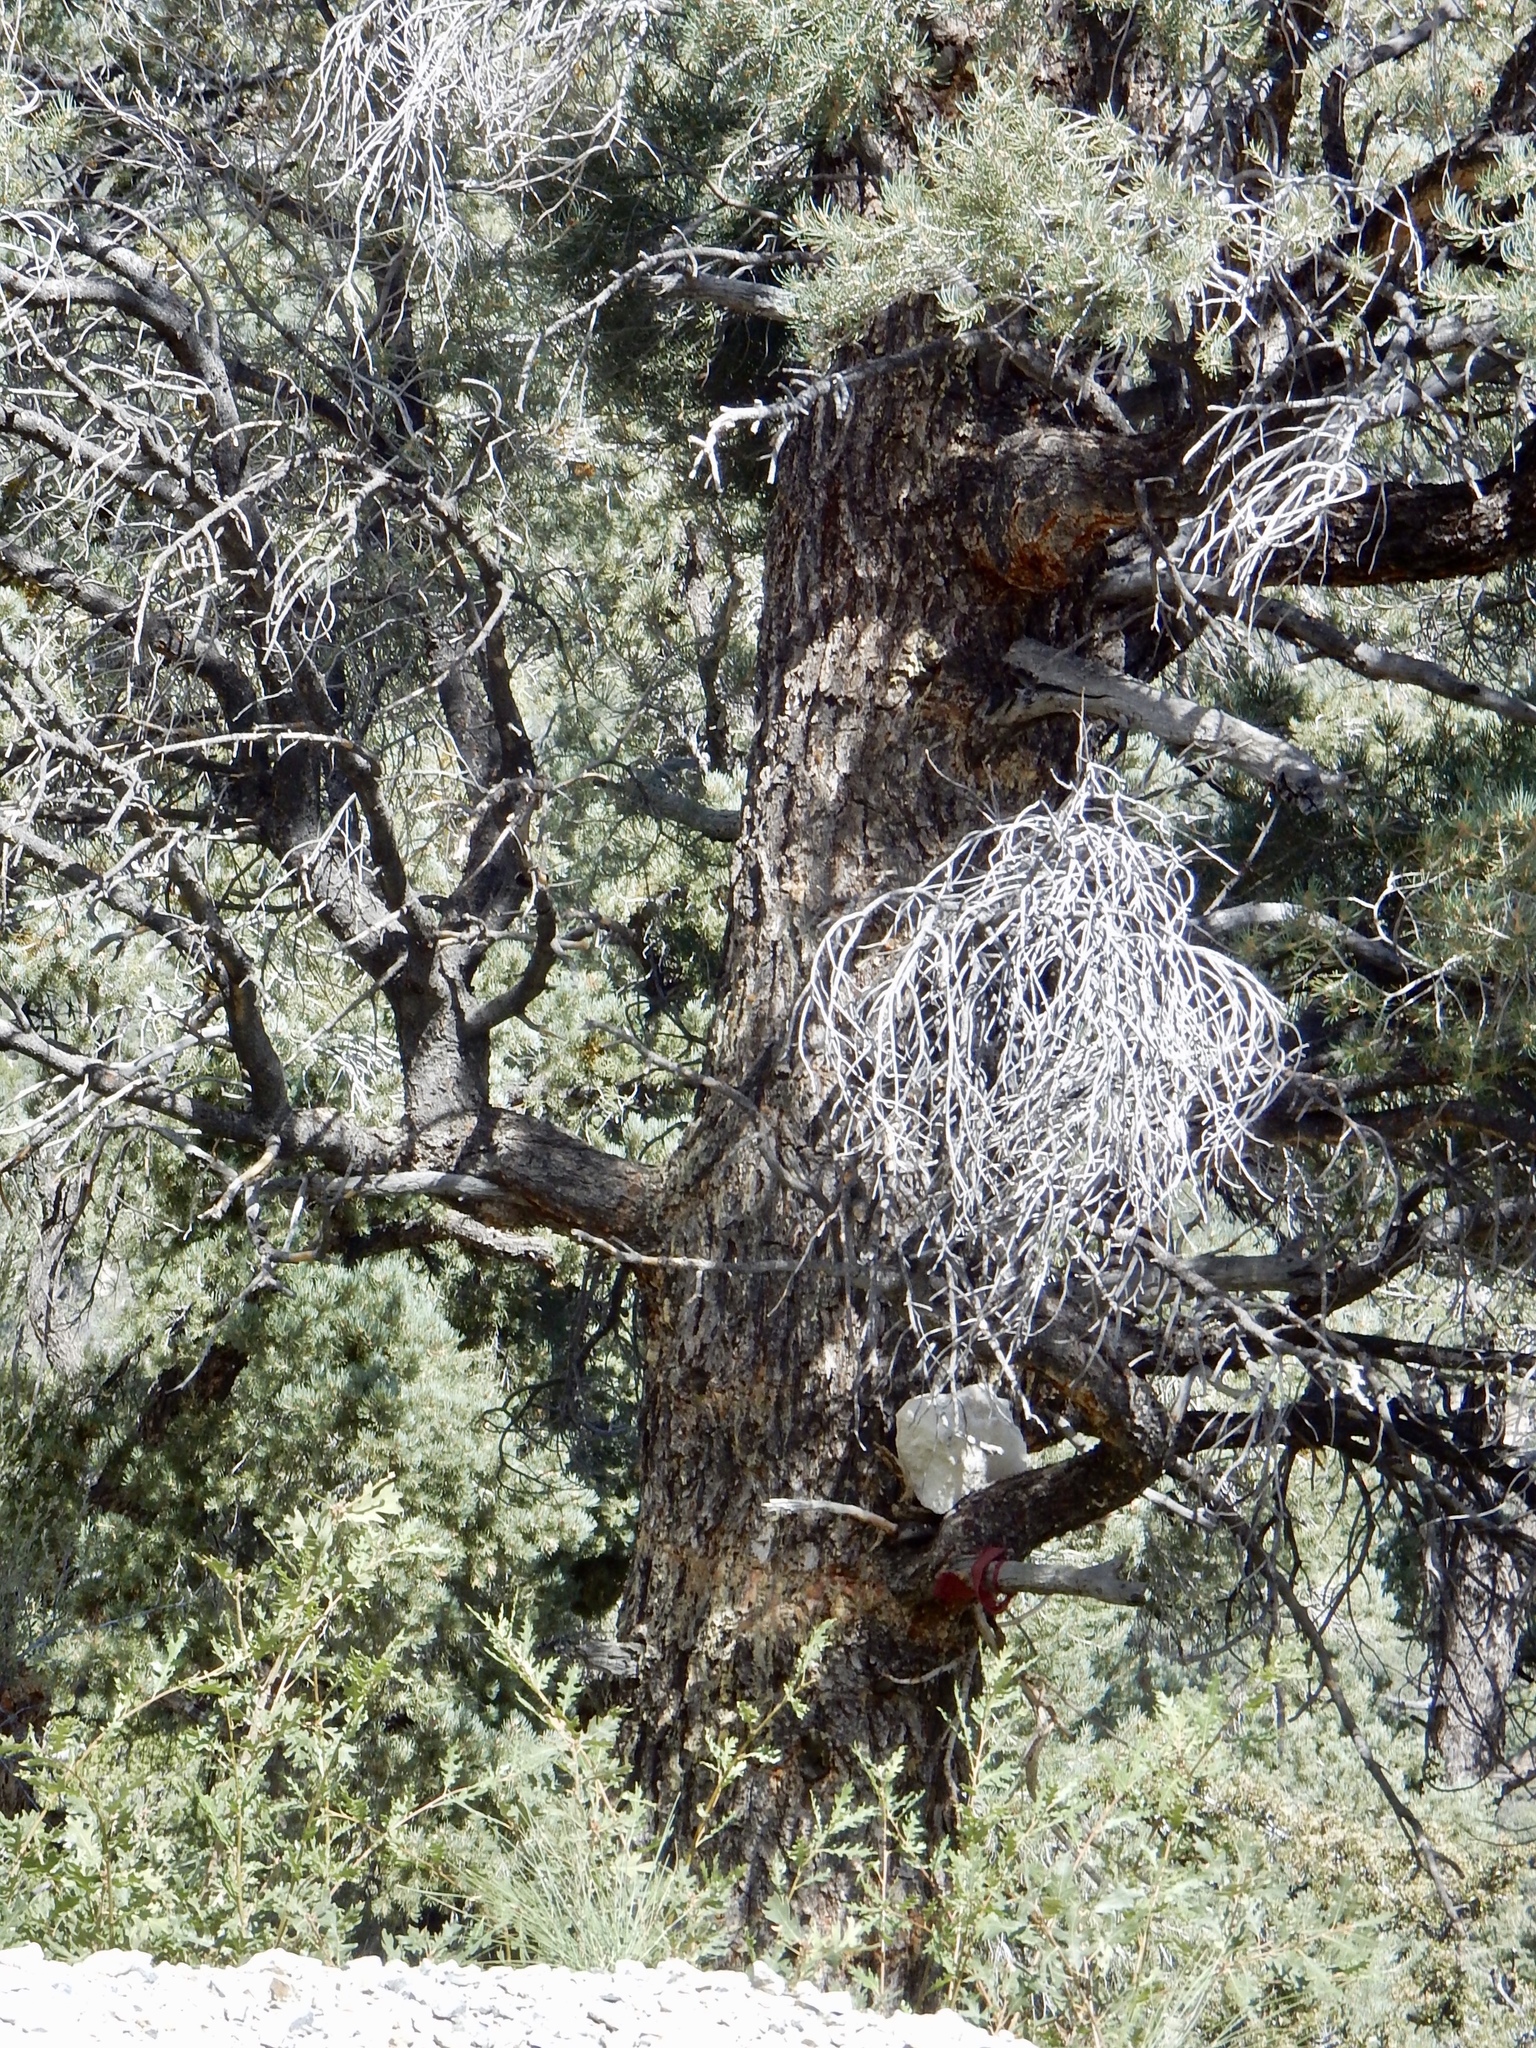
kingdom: Plantae
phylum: Tracheophyta
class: Pinopsida
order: Pinales
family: Pinaceae
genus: Pinus
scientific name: Pinus monophylla
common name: One-leaved nut pine
